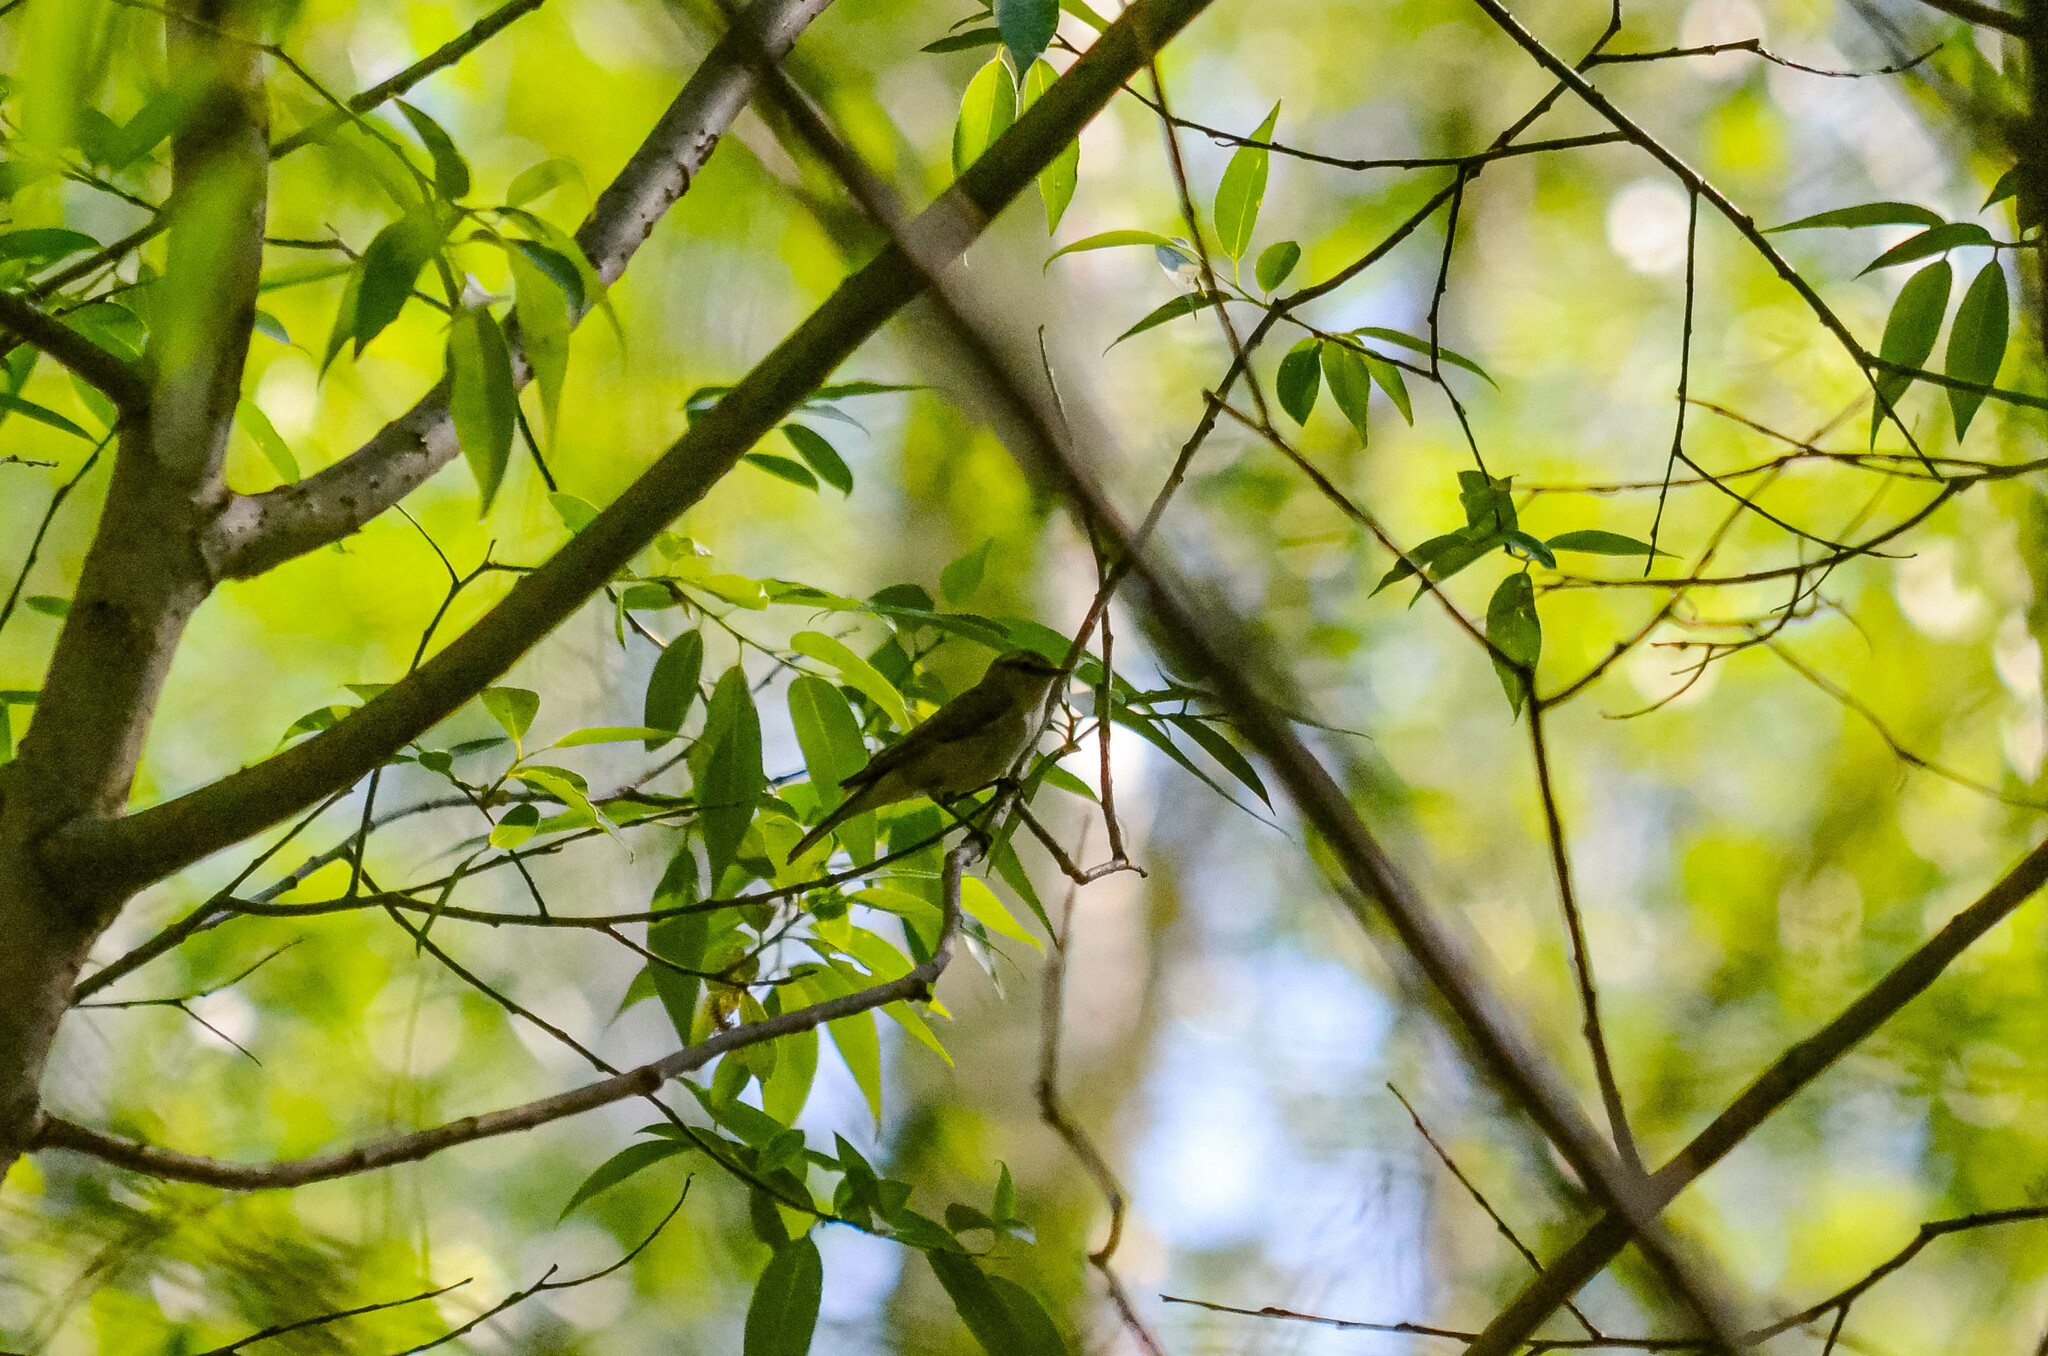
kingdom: Animalia
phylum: Chordata
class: Aves
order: Passeriformes
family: Phylloscopidae
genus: Phylloscopus
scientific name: Phylloscopus collybita
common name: Common chiffchaff
